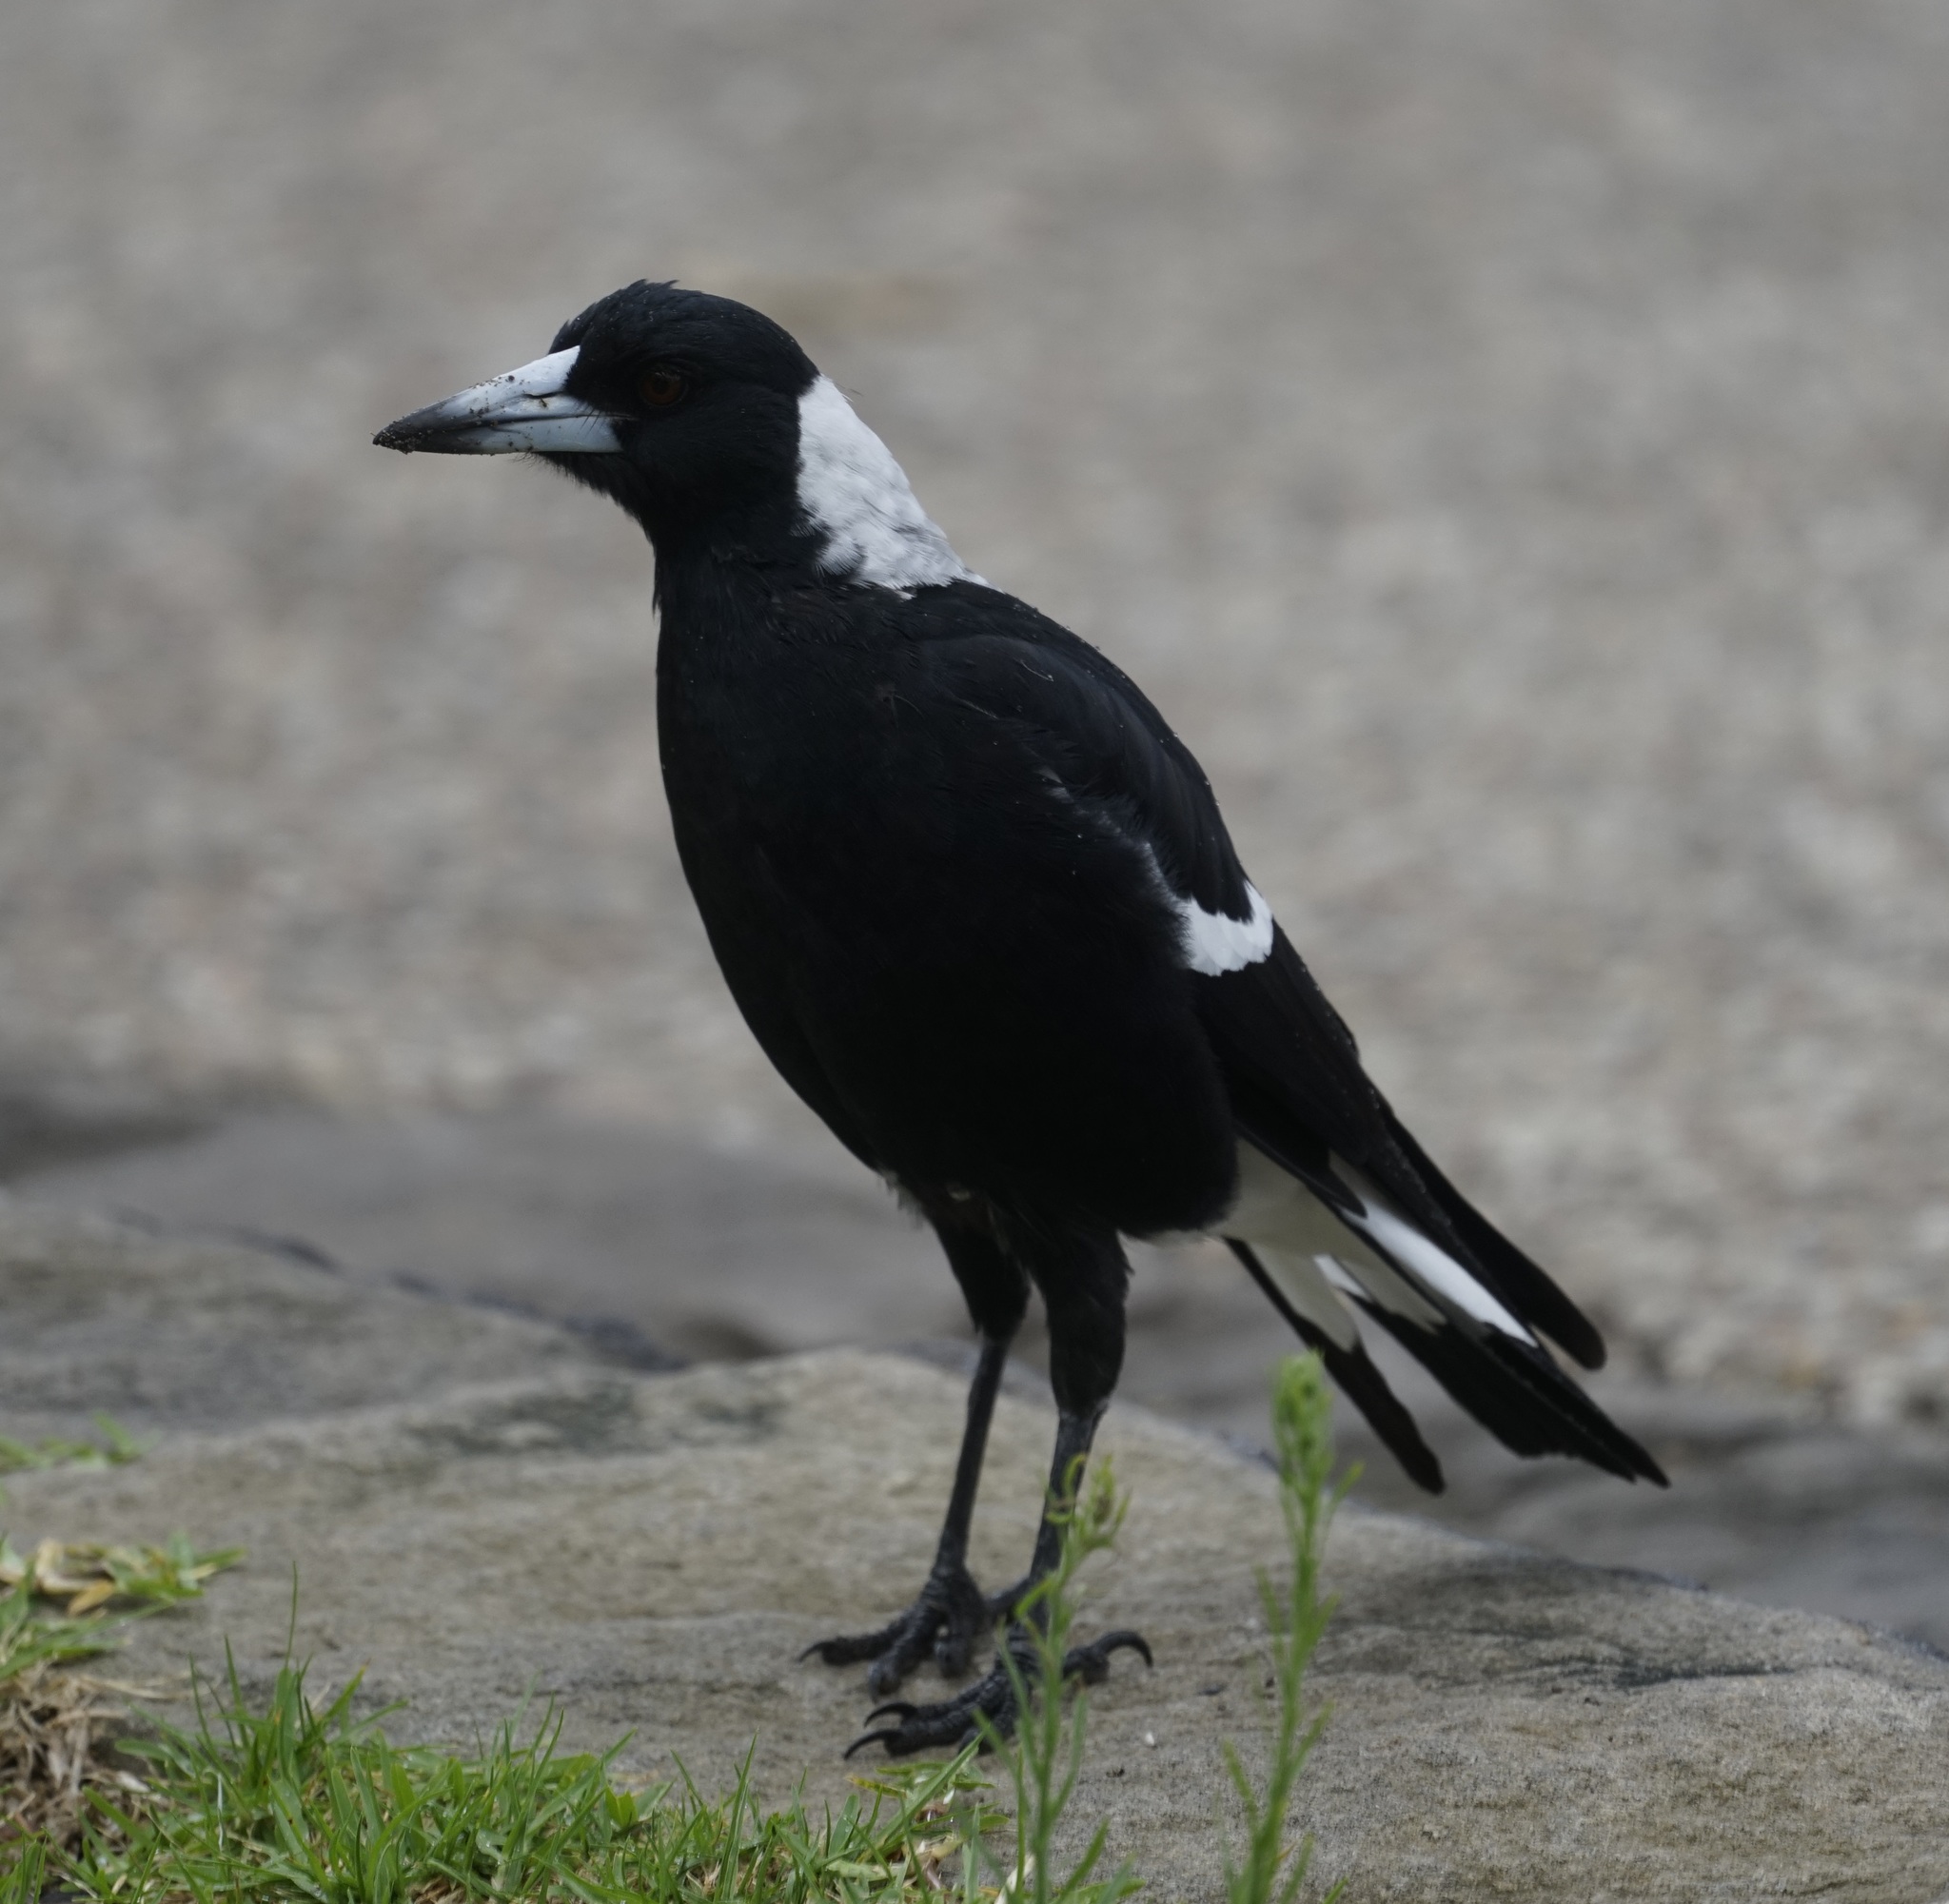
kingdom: Animalia
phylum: Chordata
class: Aves
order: Passeriformes
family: Cracticidae
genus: Gymnorhina
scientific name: Gymnorhina tibicen
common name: Australian magpie
